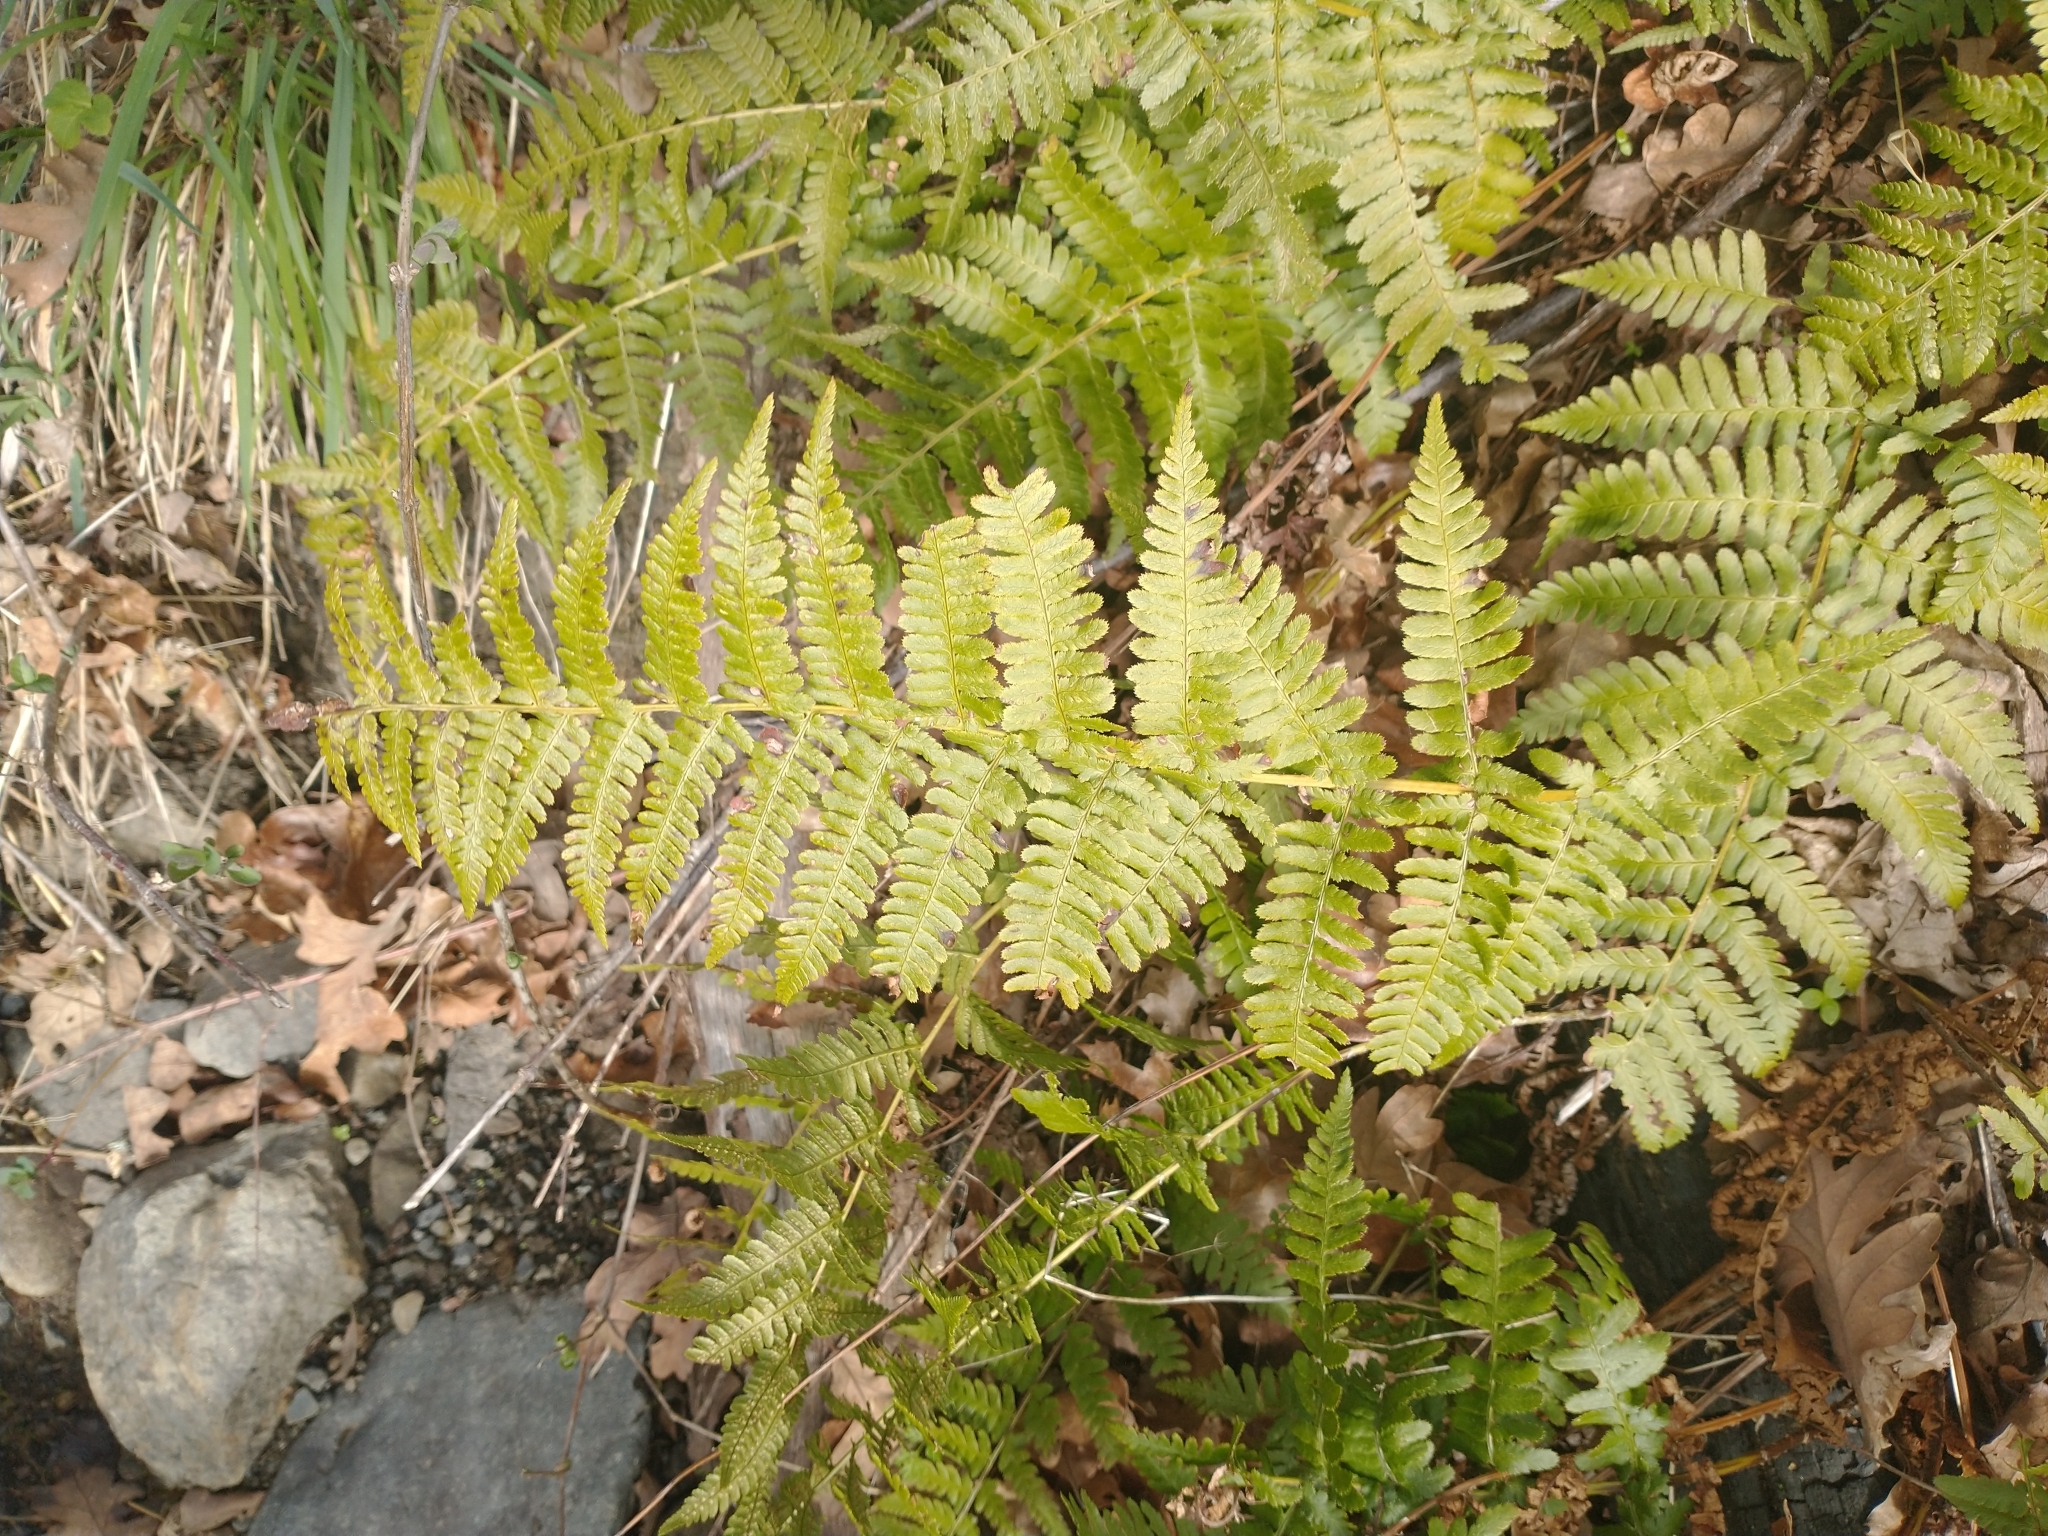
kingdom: Plantae
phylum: Tracheophyta
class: Polypodiopsida
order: Polypodiales
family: Dryopteridaceae
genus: Dryopteris
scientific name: Dryopteris arguta
